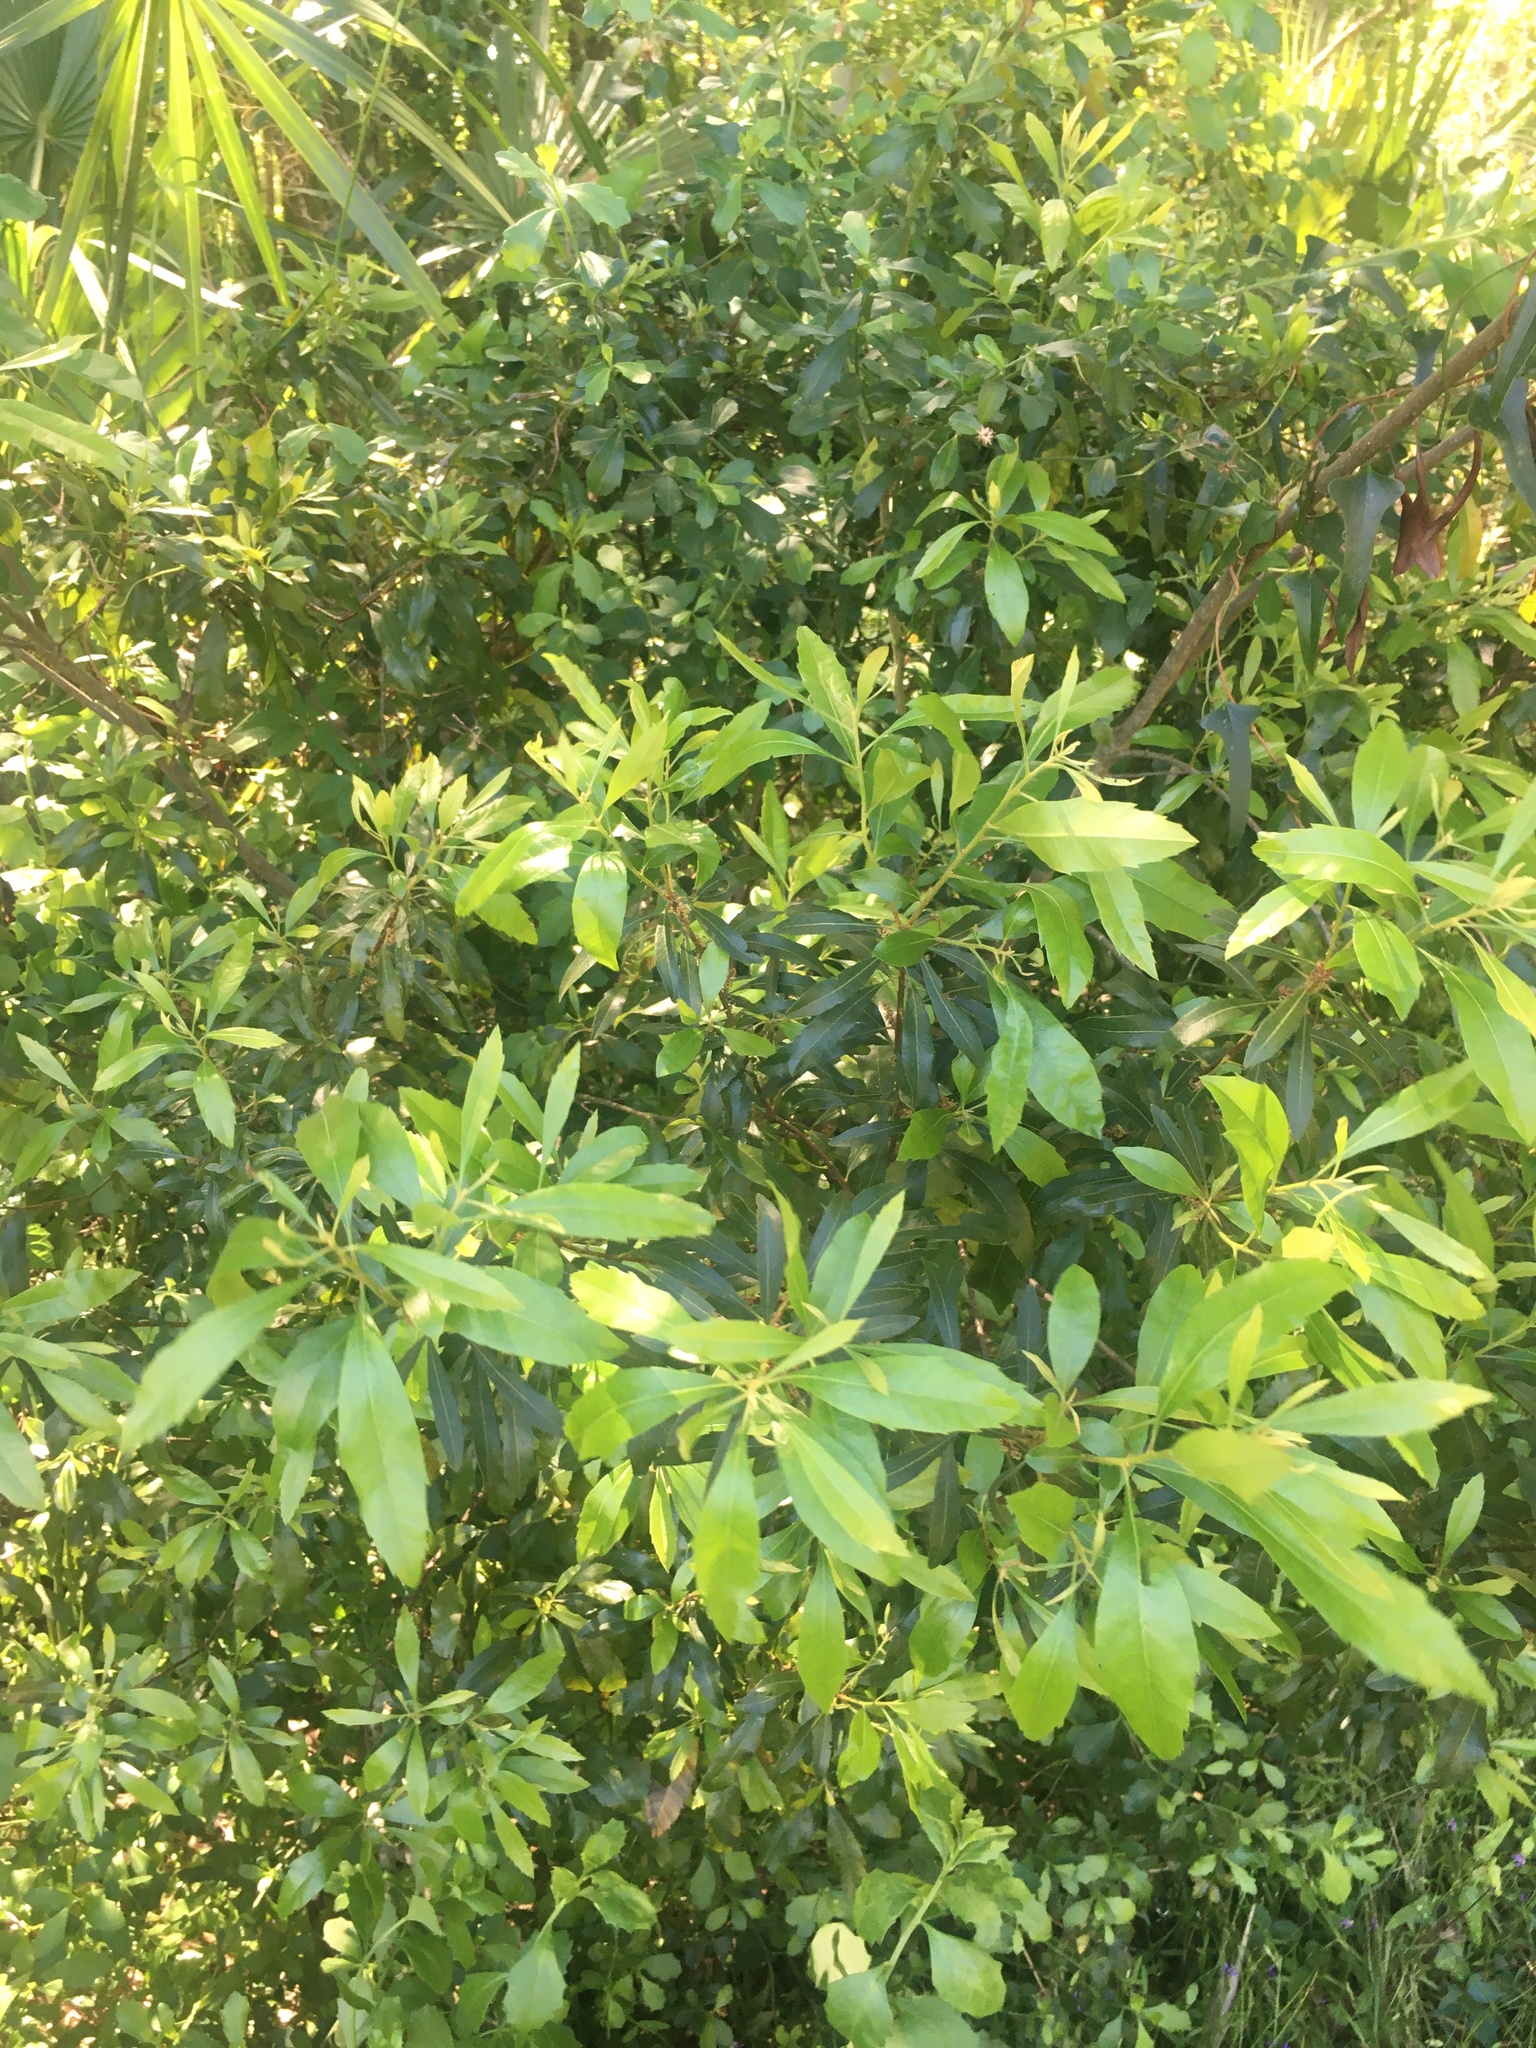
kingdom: Plantae
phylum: Tracheophyta
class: Magnoliopsida
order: Fagales
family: Myricaceae
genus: Morella
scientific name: Morella cerifera
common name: Wax myrtle
